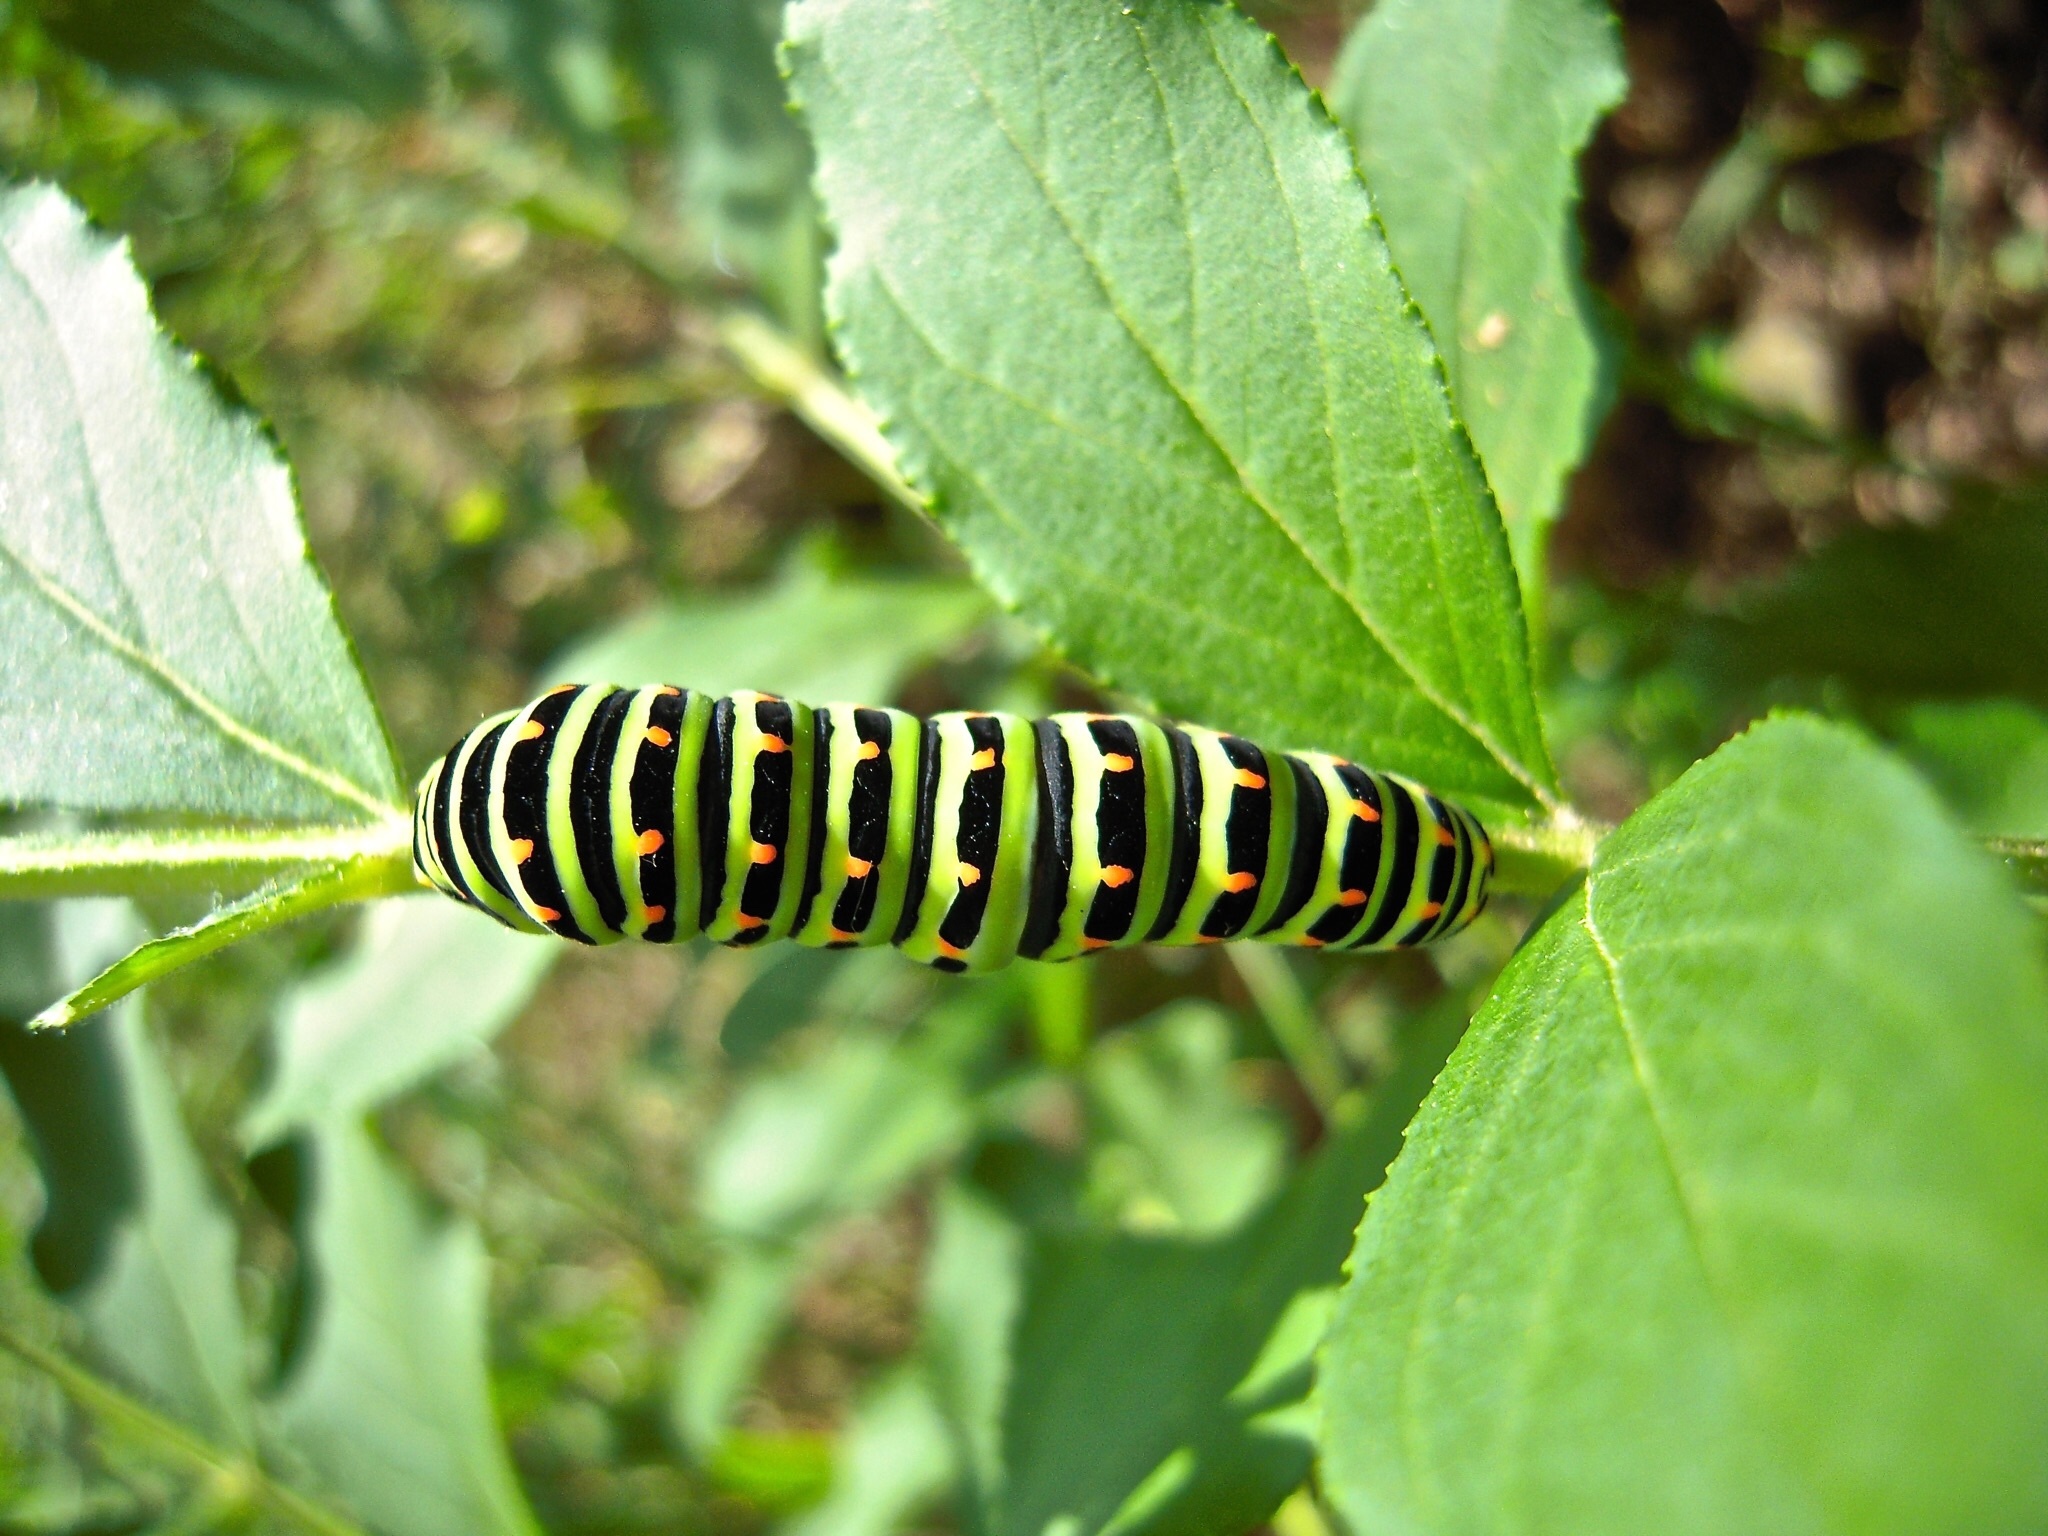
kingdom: Animalia
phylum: Arthropoda
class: Insecta
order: Lepidoptera
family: Papilionidae
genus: Papilio
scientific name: Papilio machaon
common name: Swallowtail
